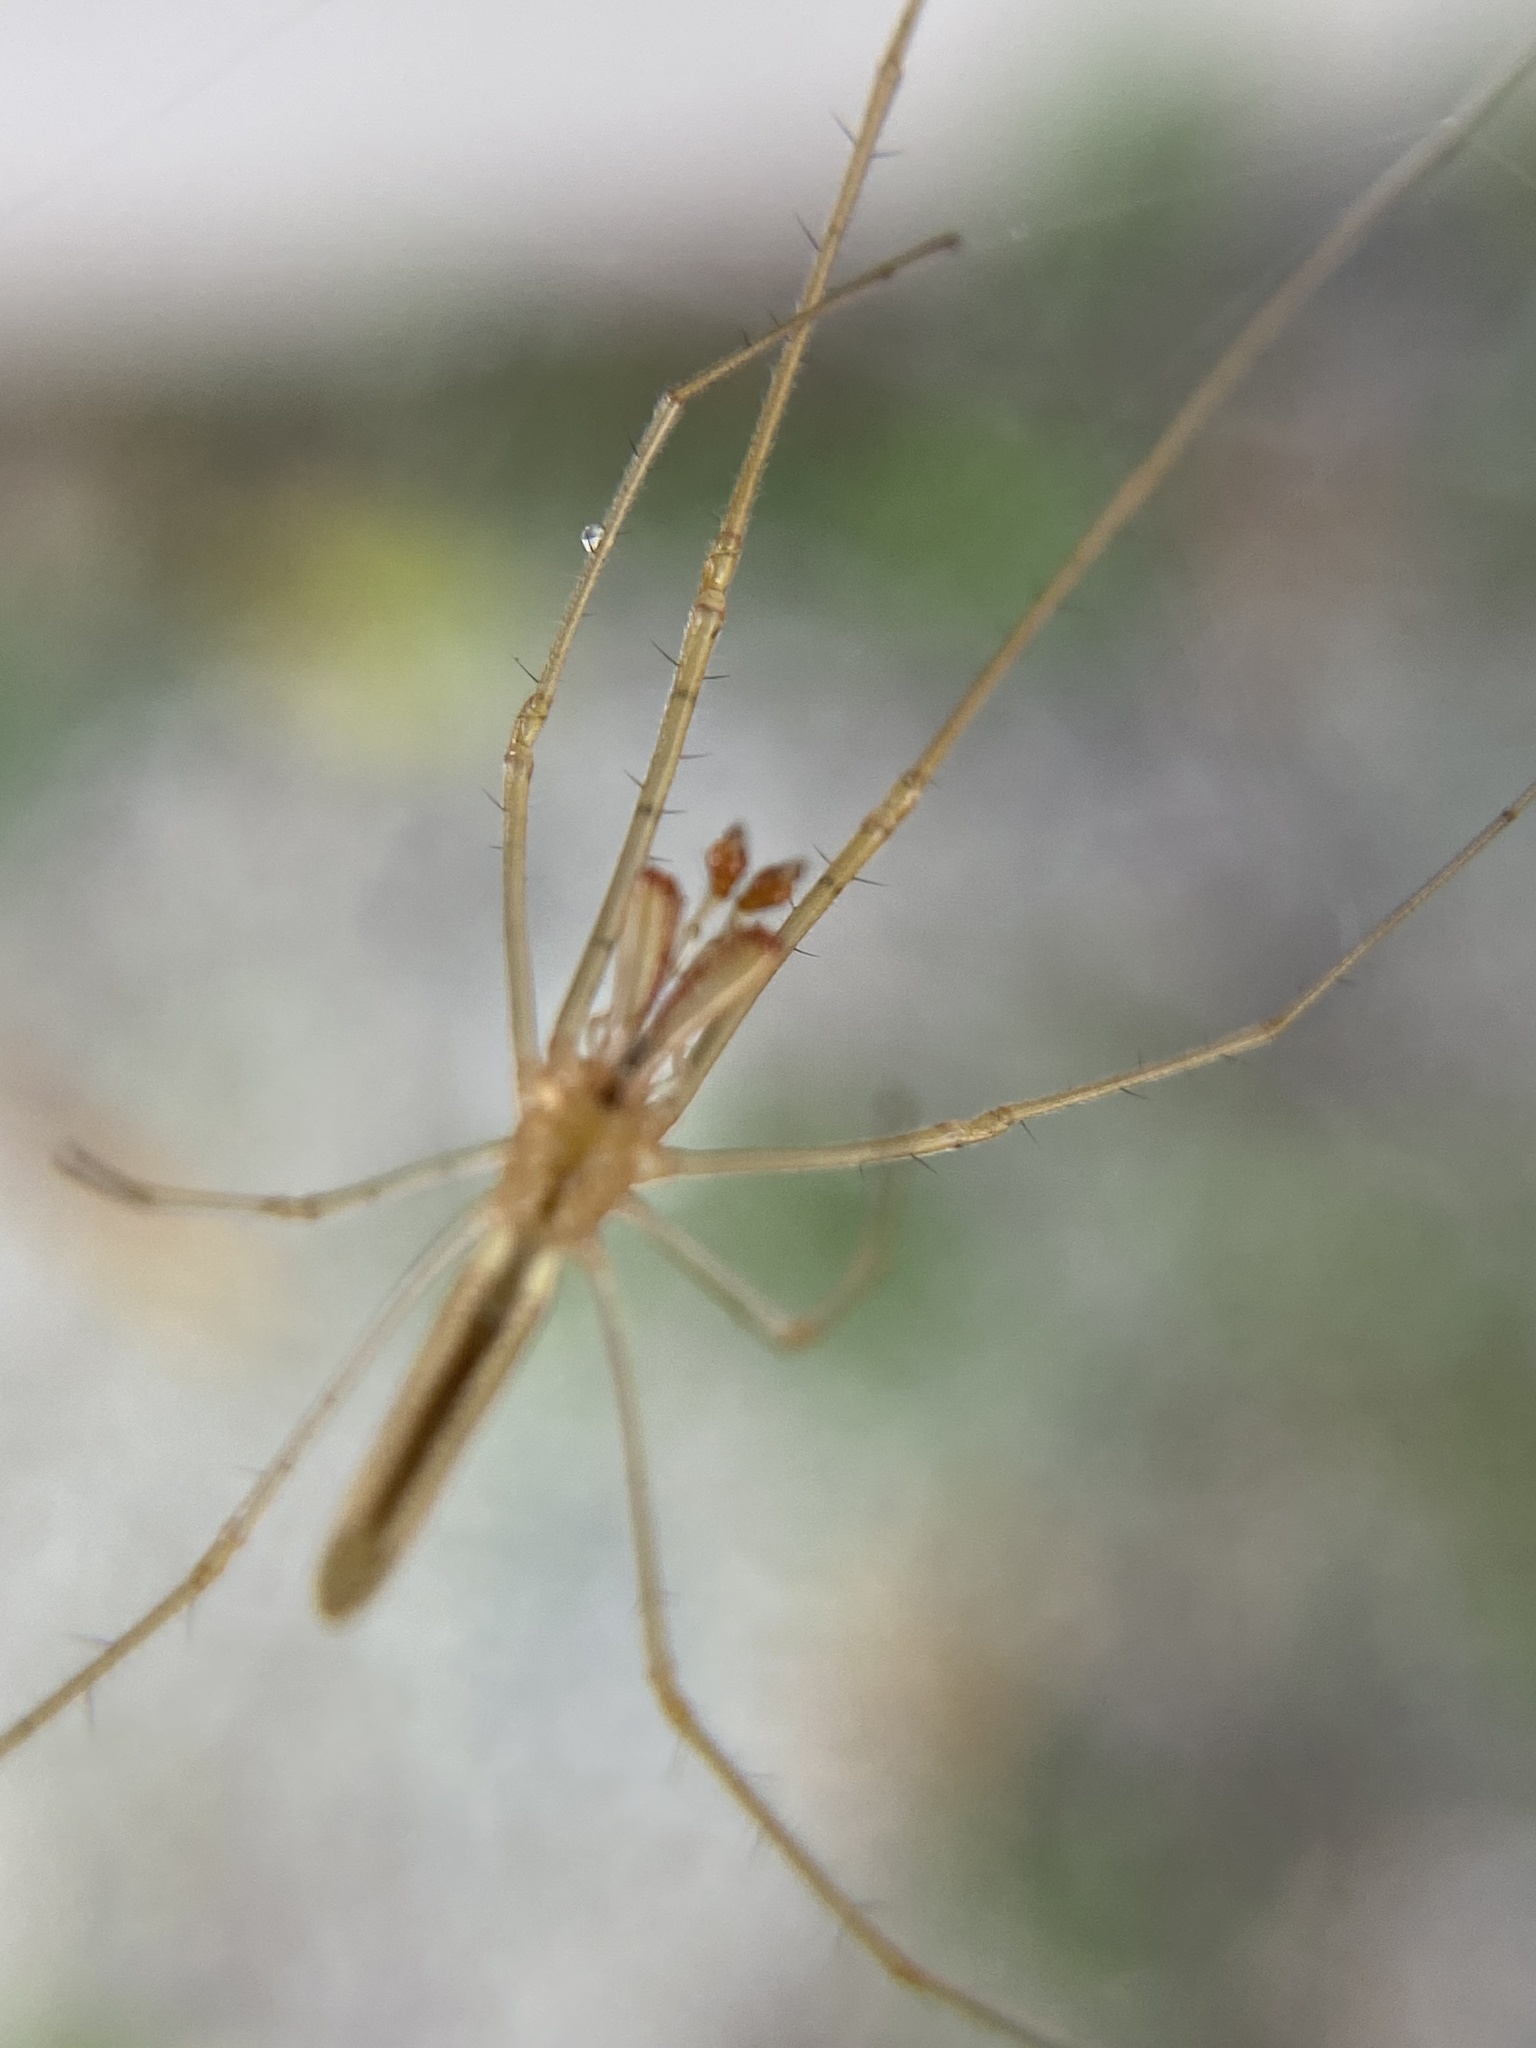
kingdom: Animalia
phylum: Arthropoda
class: Arachnida
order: Araneae
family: Tetragnathidae
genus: Tetragnatha
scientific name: Tetragnatha
